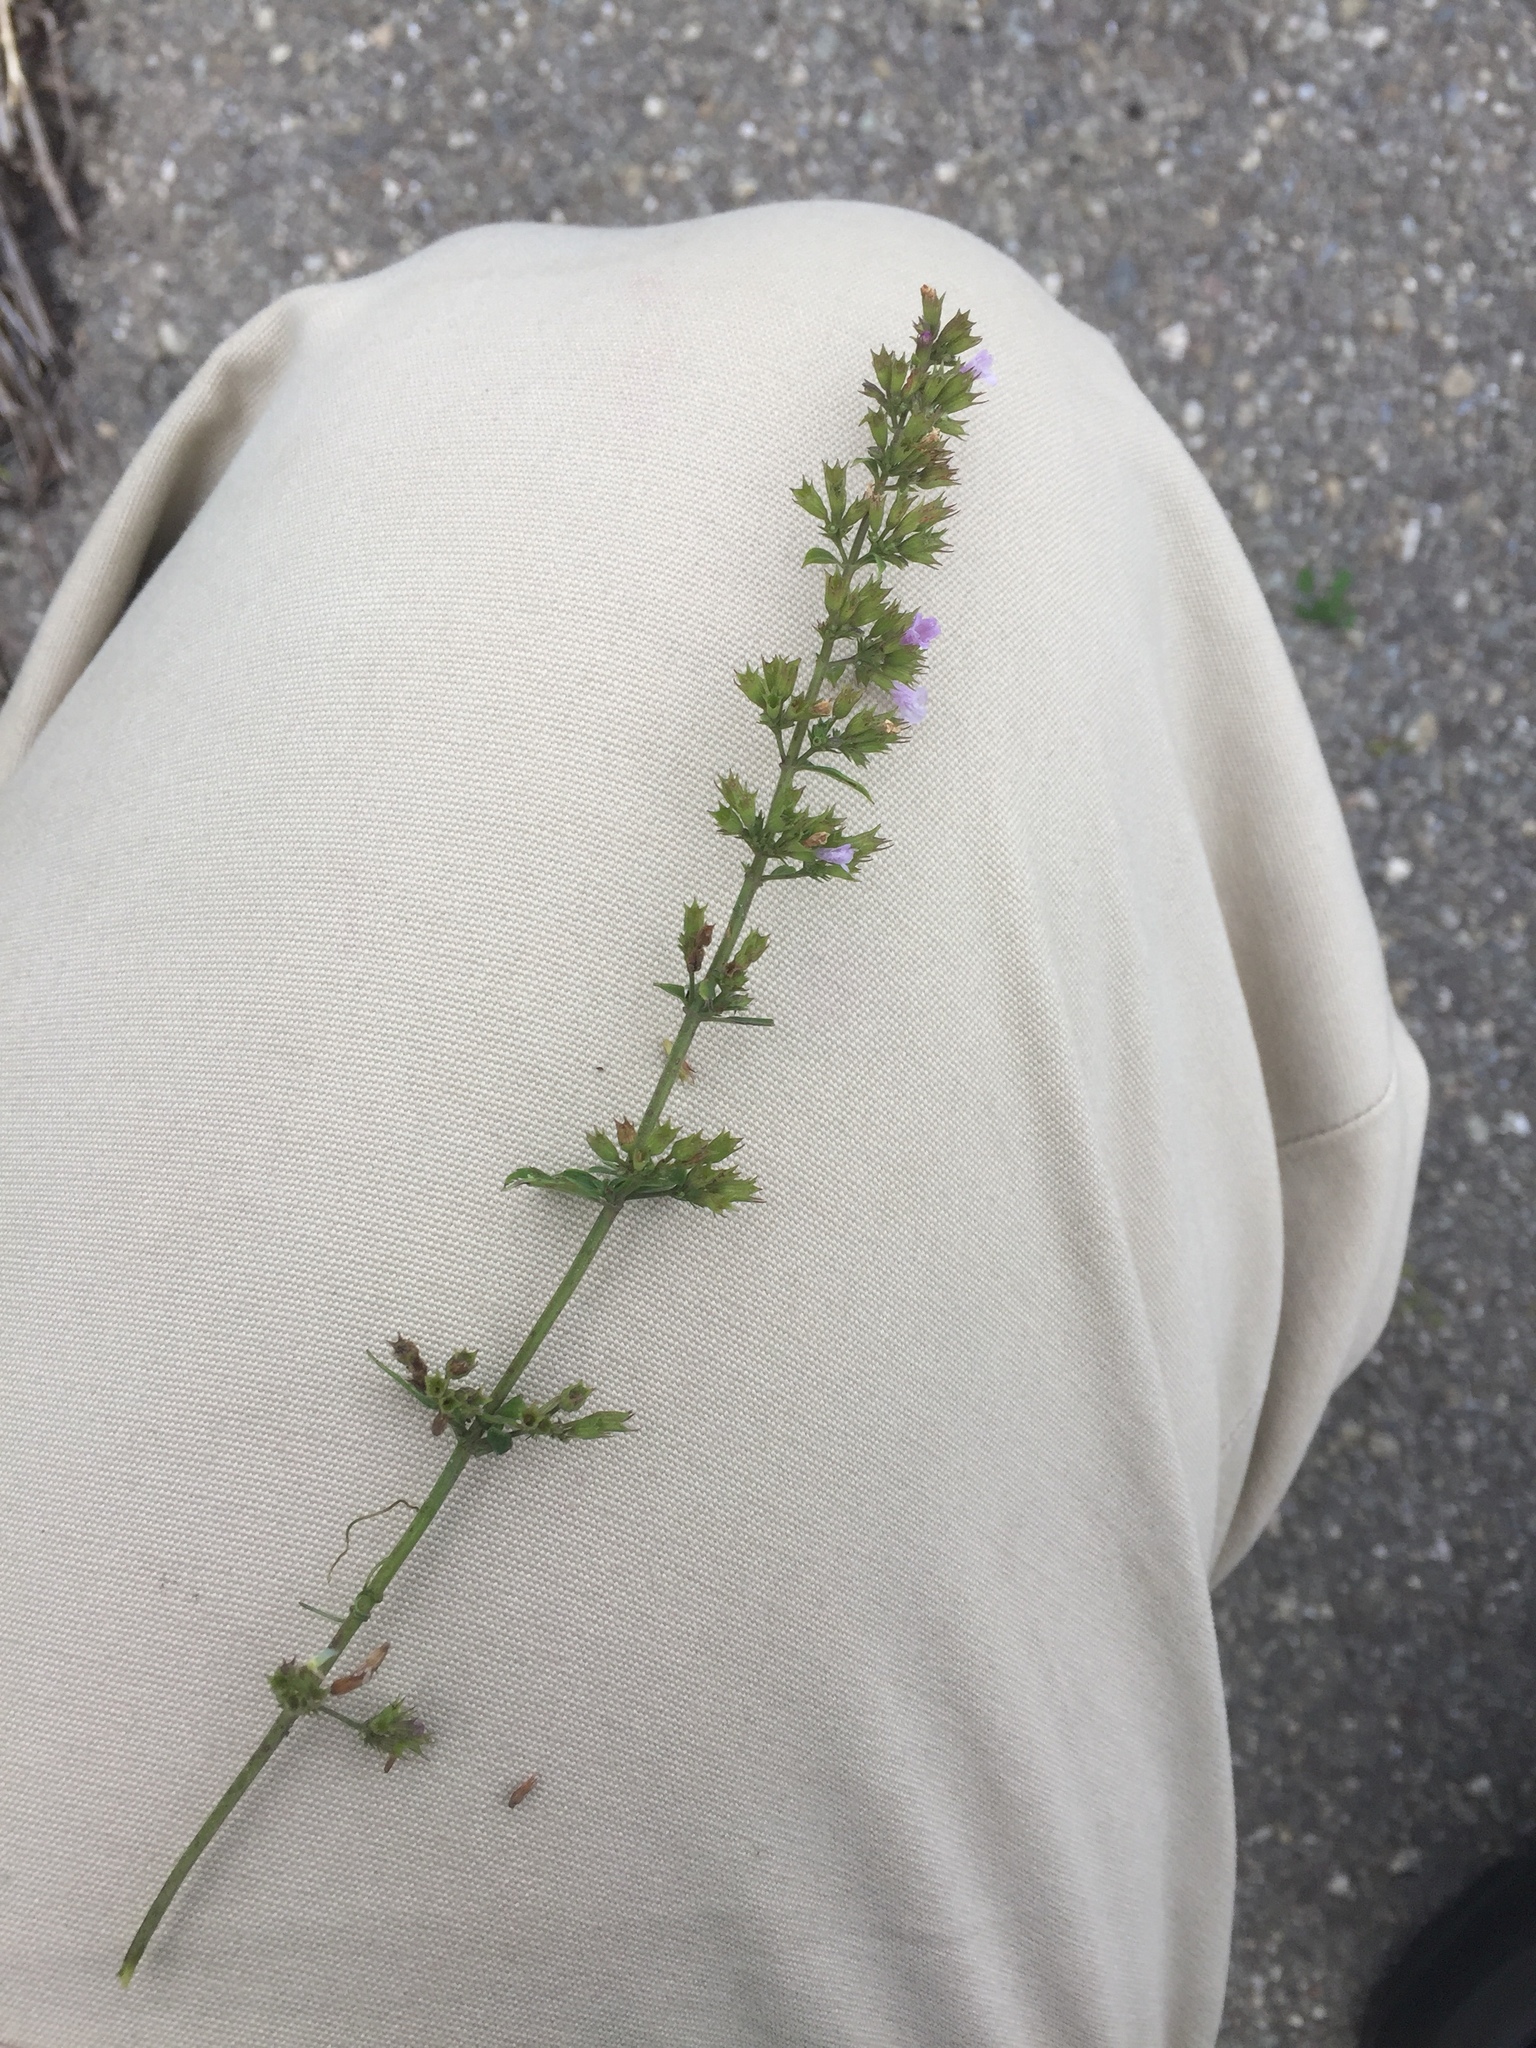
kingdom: Plantae
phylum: Tracheophyta
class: Magnoliopsida
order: Lamiales
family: Lamiaceae
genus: Clinopodium
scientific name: Clinopodium nepeta
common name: Lesser calamint
